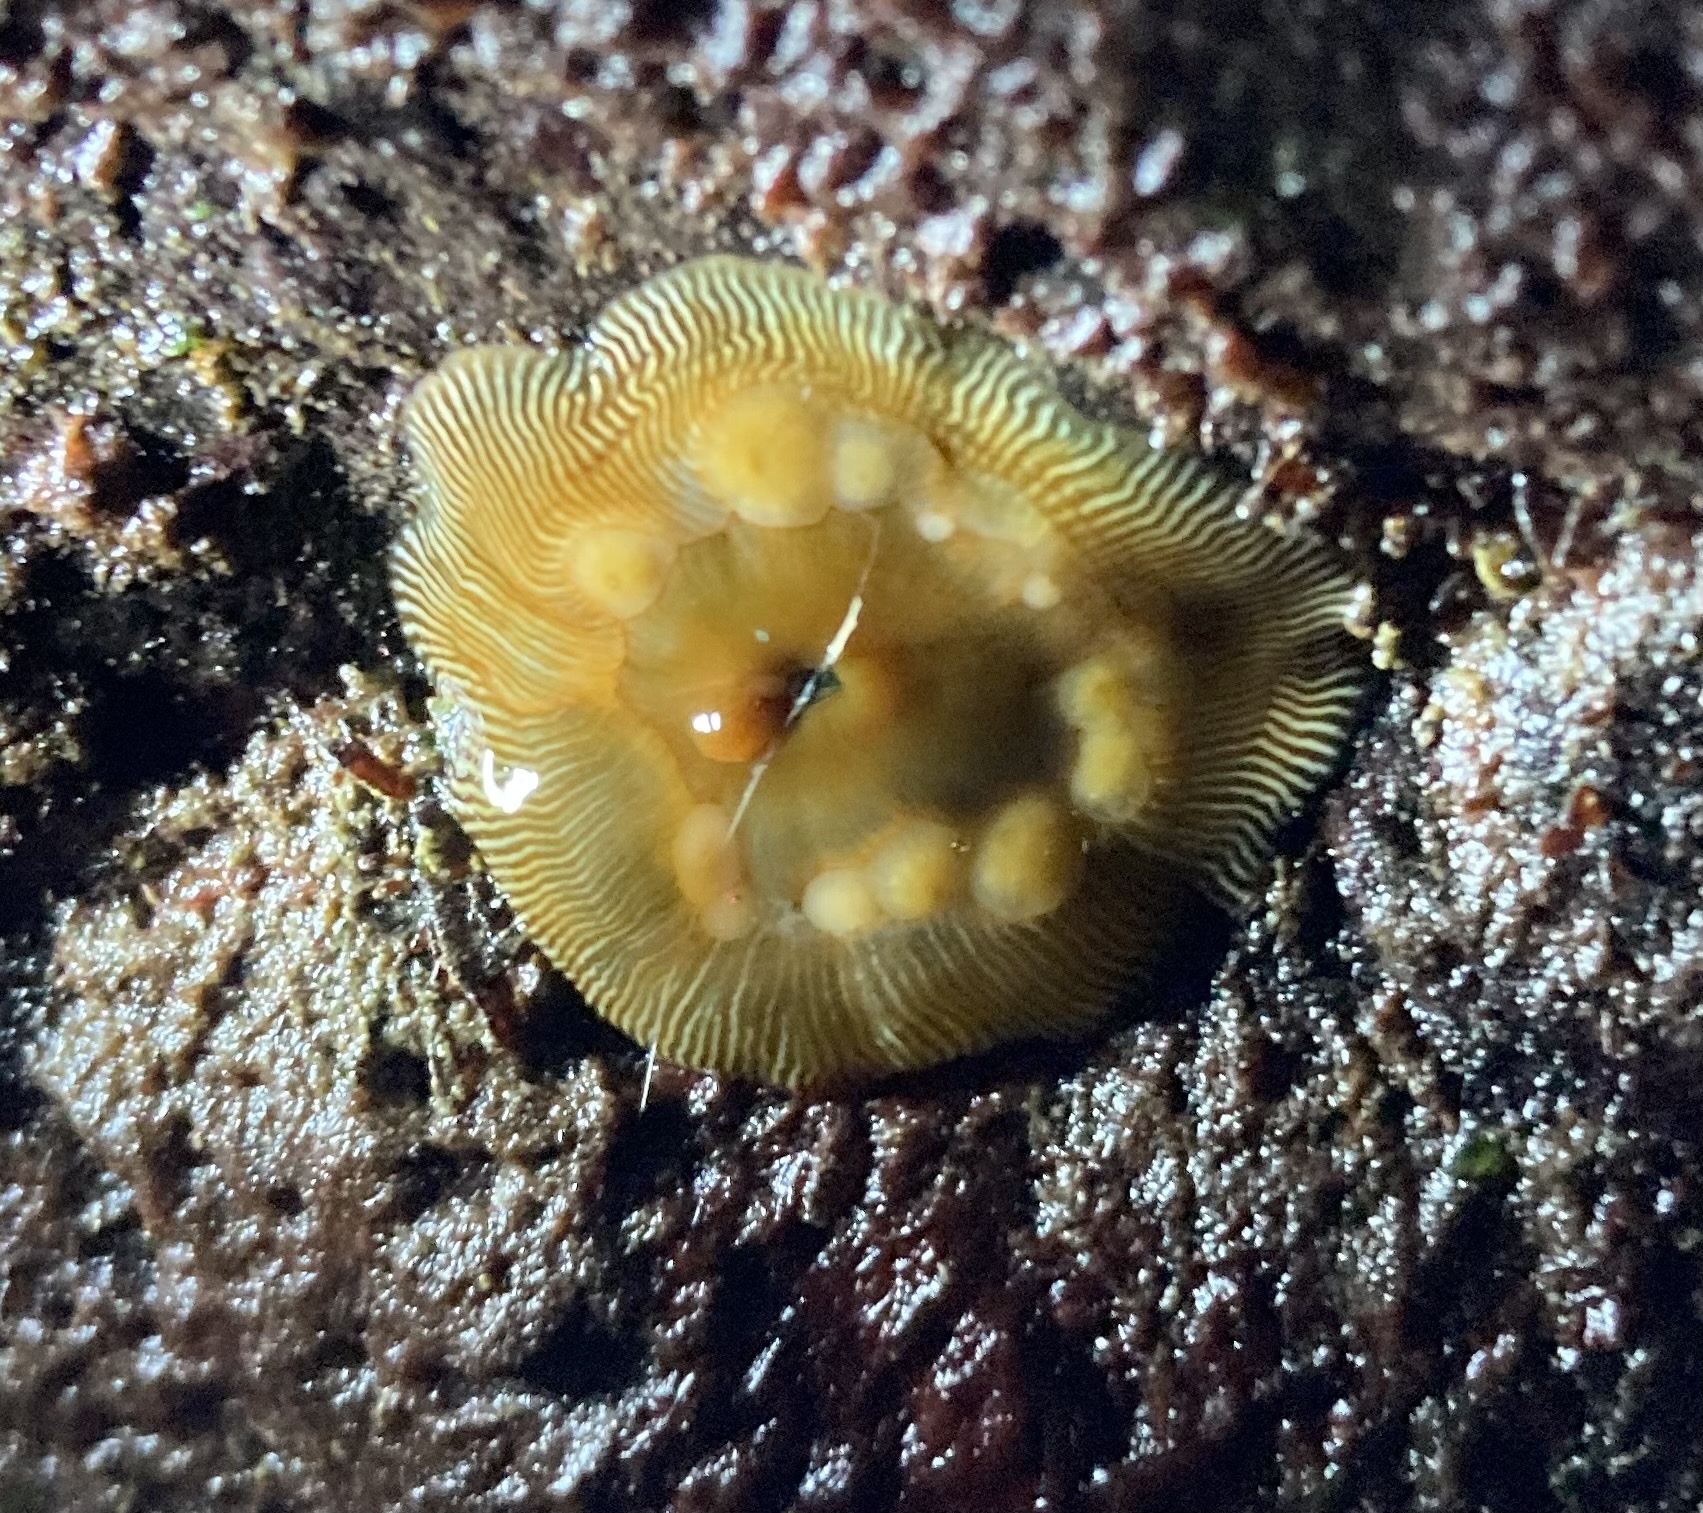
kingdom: Animalia
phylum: Cnidaria
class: Anthozoa
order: Actiniaria
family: Actiniidae
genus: Epiactis
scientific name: Epiactis prolifera
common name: Brooding anemone
